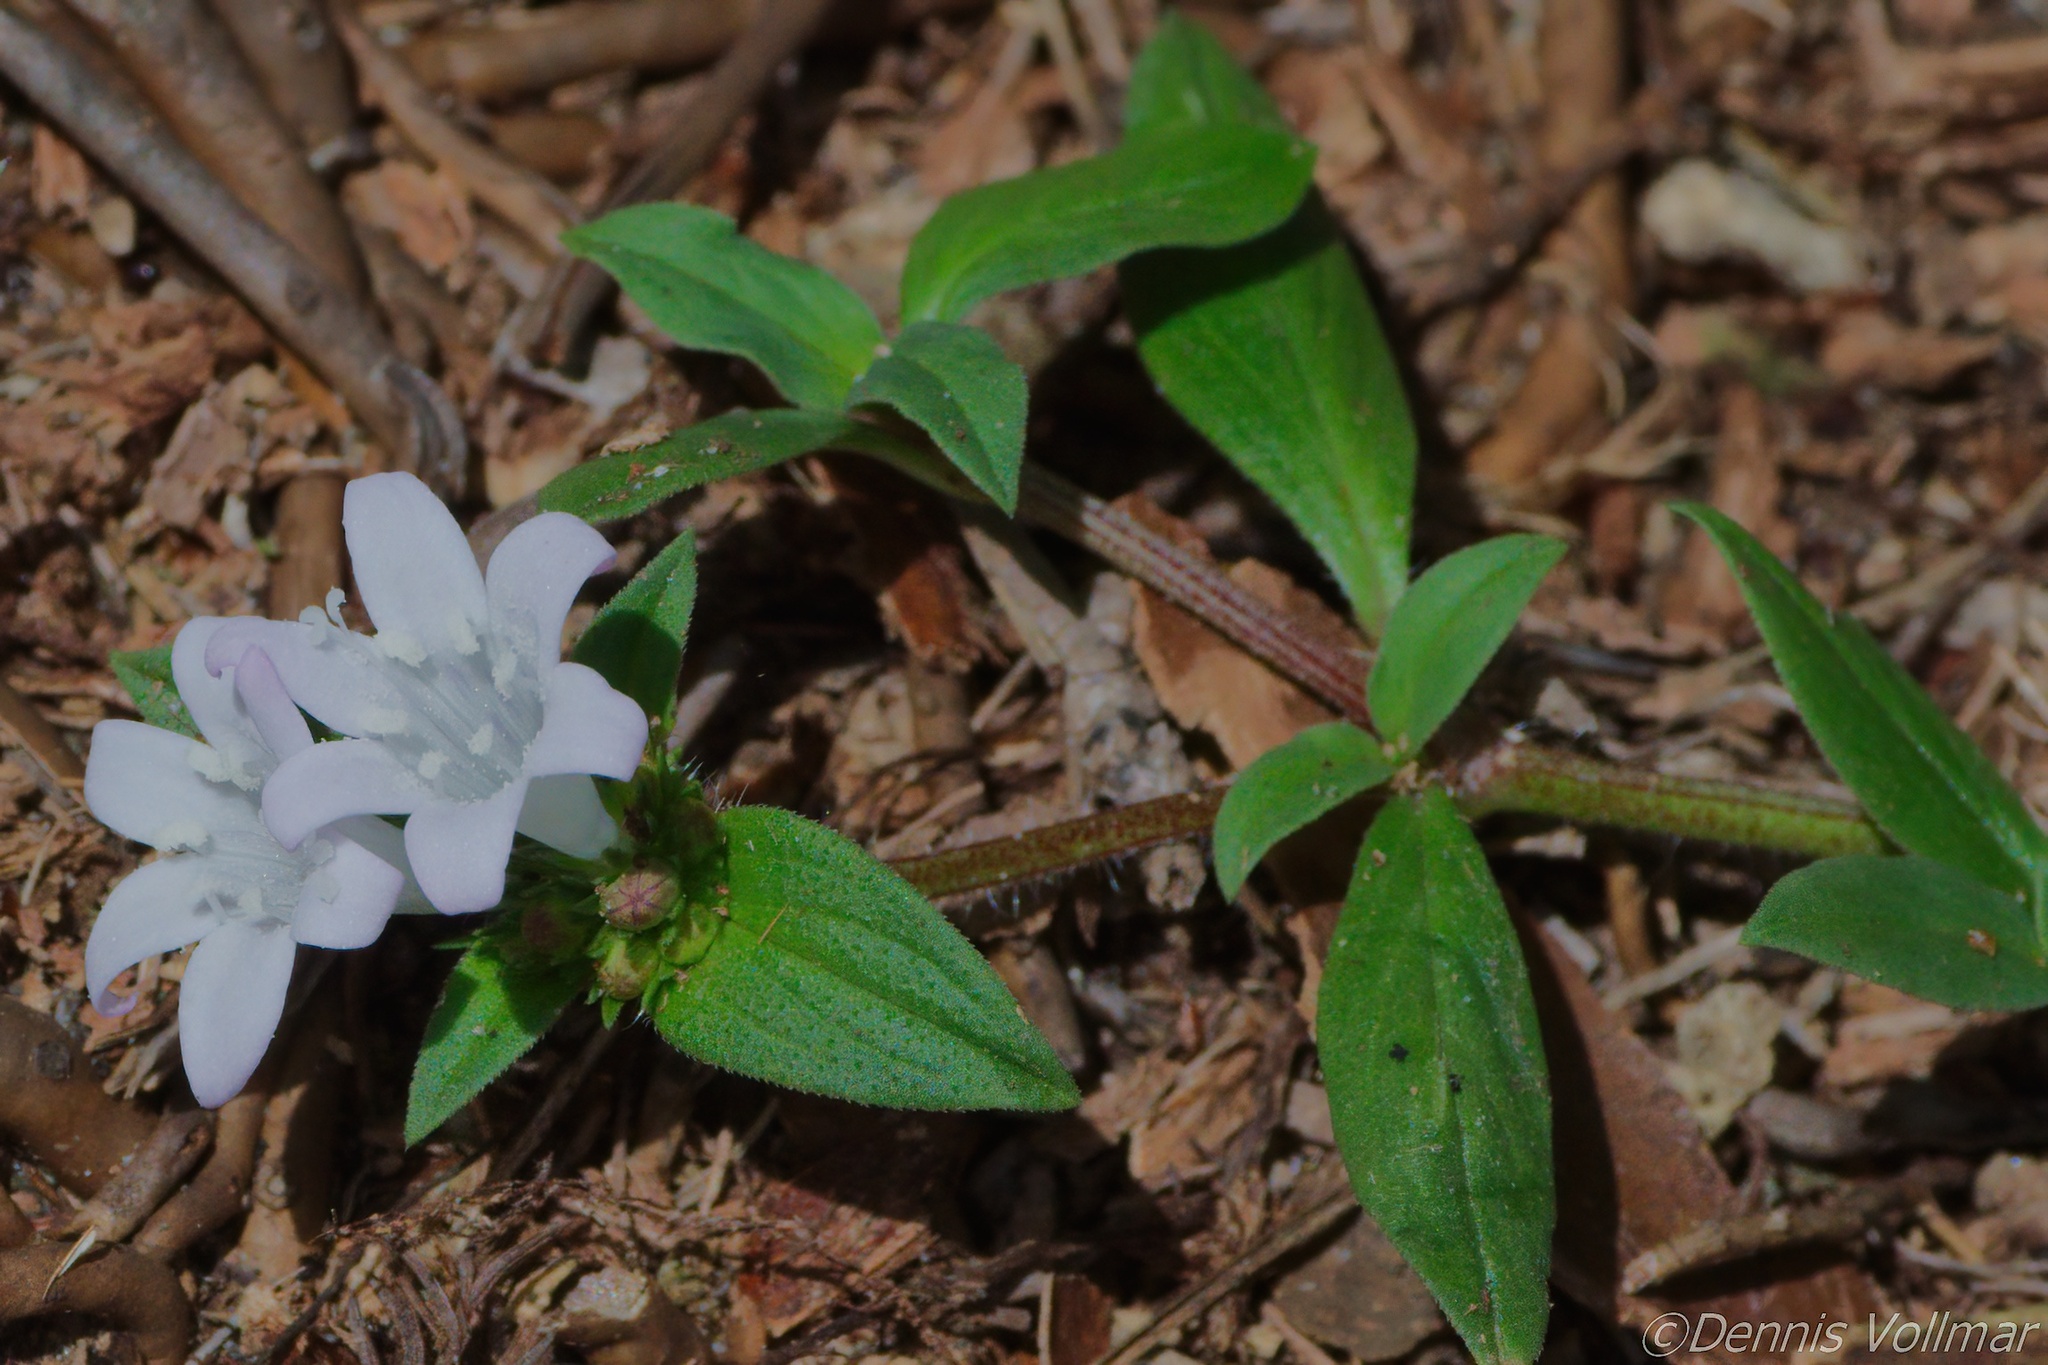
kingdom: Plantae
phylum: Tracheophyta
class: Magnoliopsida
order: Gentianales
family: Rubiaceae
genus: Richardia
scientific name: Richardia grandiflora
